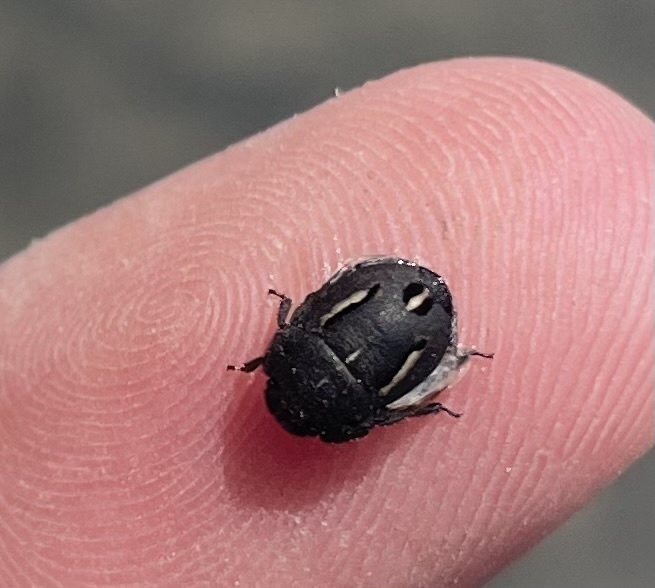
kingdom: Animalia
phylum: Arthropoda
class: Insecta
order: Hemiptera
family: Scutelleridae
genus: Odontoscelis
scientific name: Odontoscelis fuliginosa
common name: Greater streaked shieldbug
